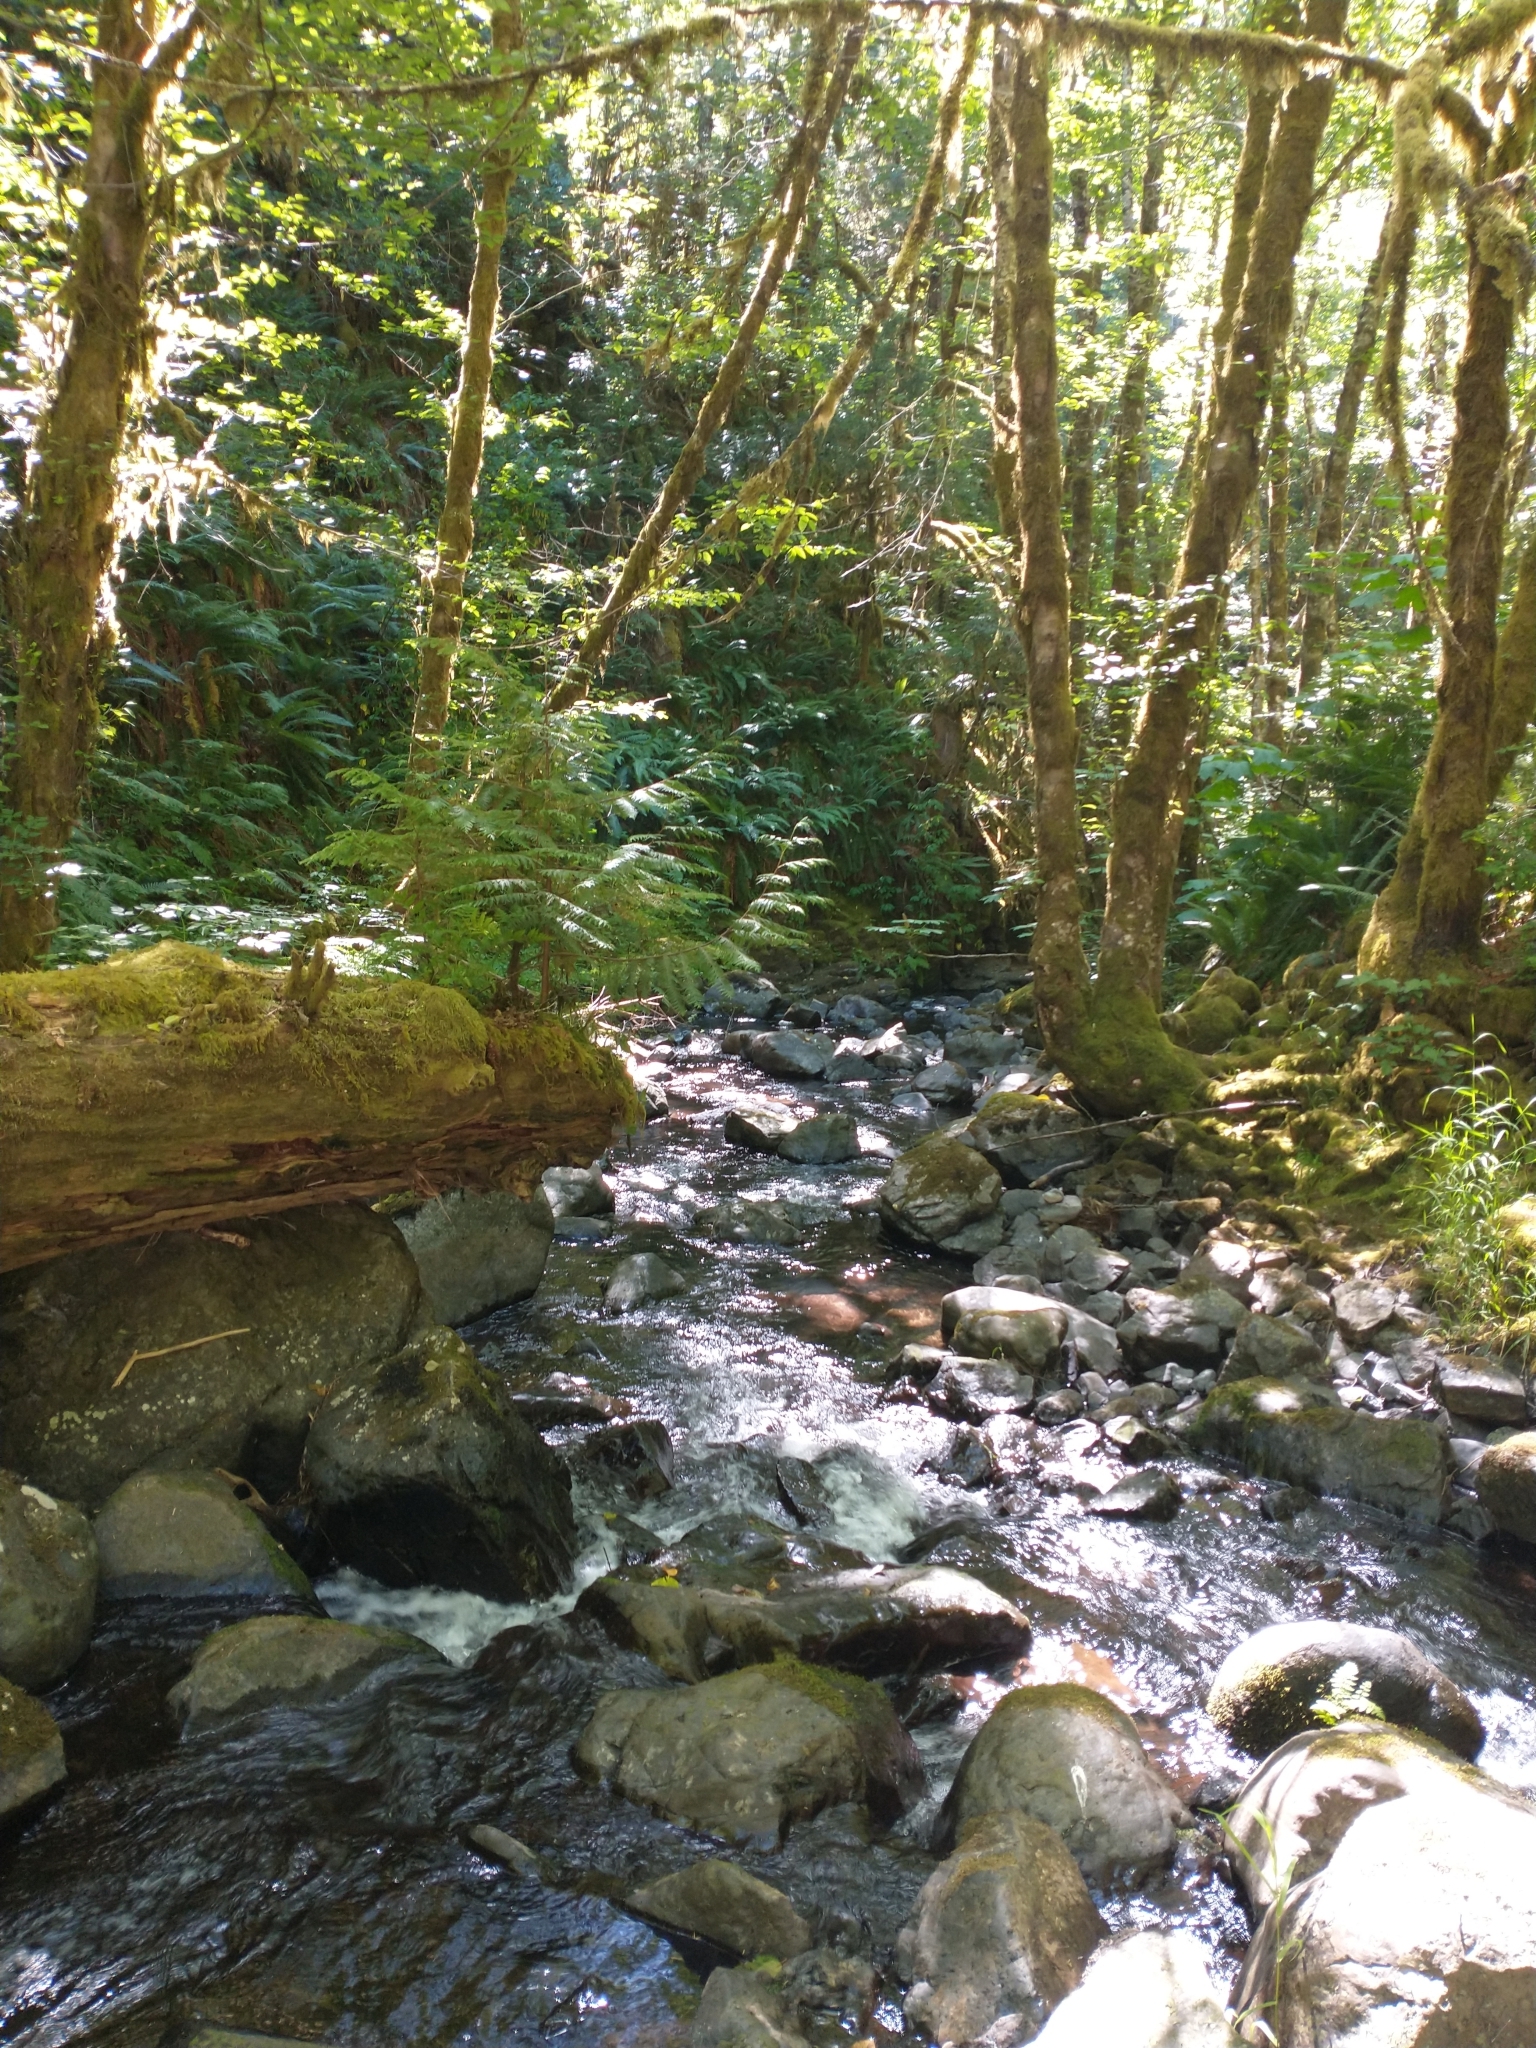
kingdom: Plantae
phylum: Tracheophyta
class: Pinopsida
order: Pinales
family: Cupressaceae
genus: Thuja
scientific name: Thuja plicata
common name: Western red-cedar
